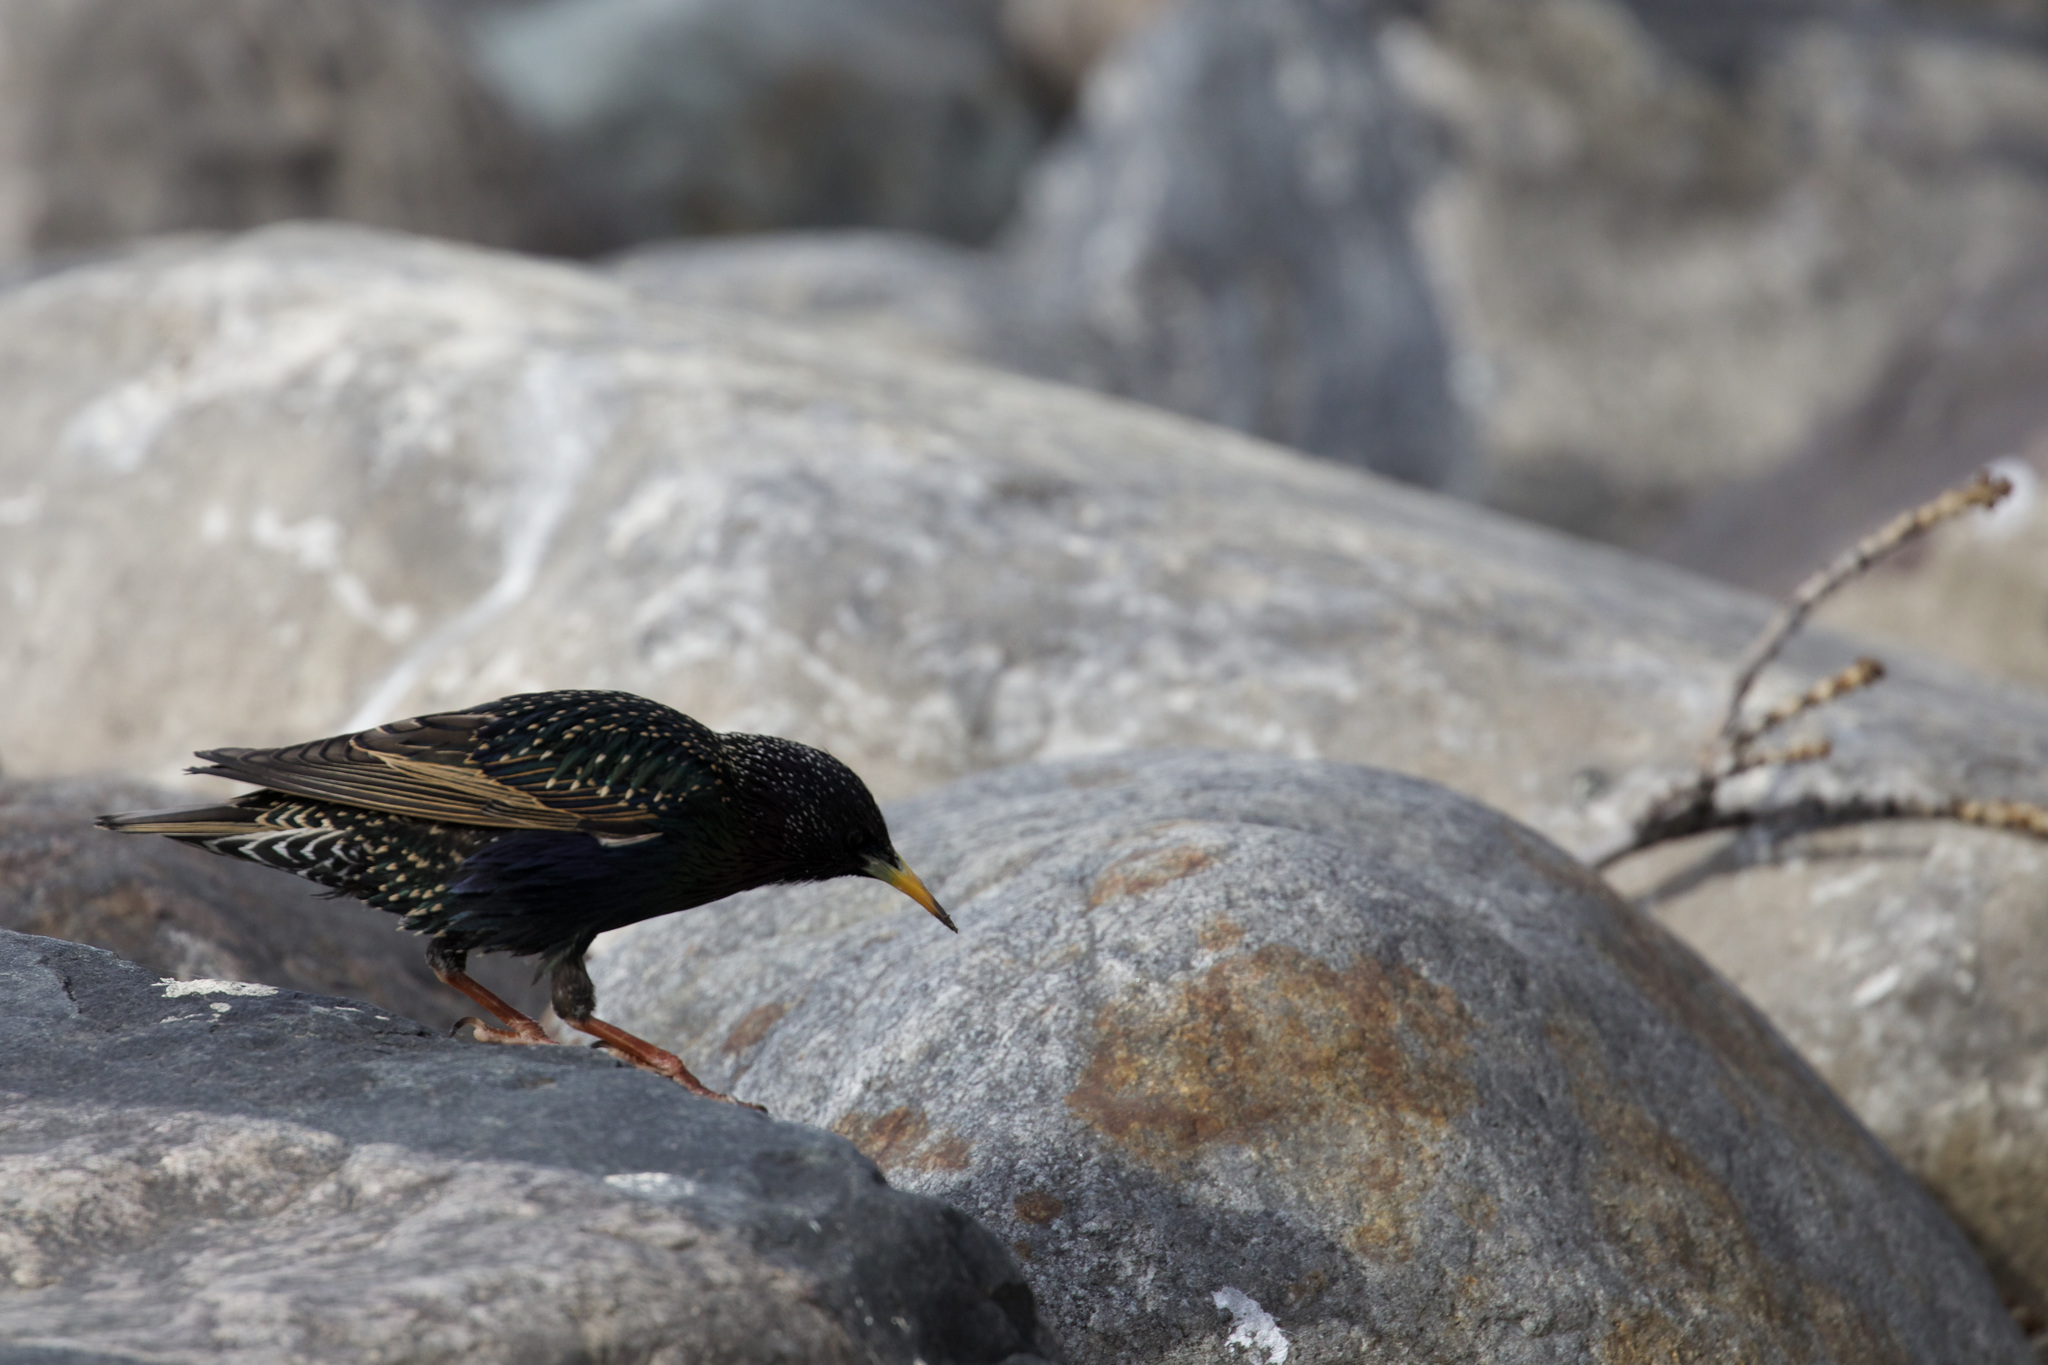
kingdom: Animalia
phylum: Chordata
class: Aves
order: Passeriformes
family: Sturnidae
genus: Sturnus
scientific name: Sturnus vulgaris
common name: Common starling
